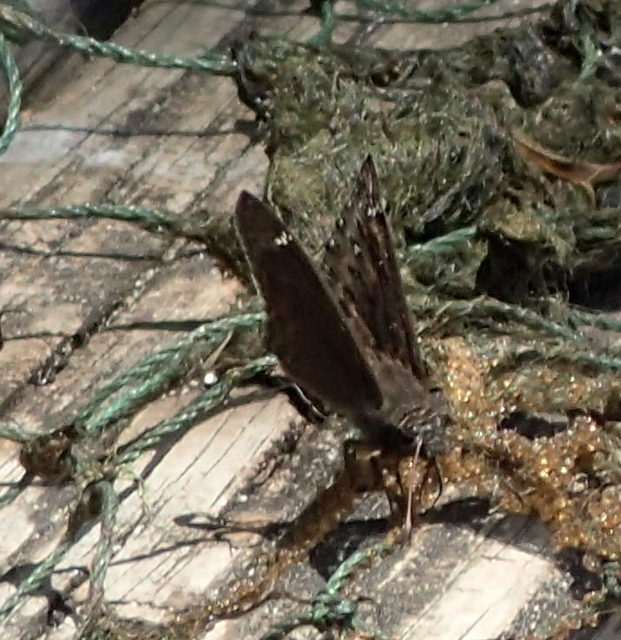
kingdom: Animalia
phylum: Arthropoda
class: Insecta
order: Lepidoptera
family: Hesperiidae
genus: Erynnis
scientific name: Erynnis horatius
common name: Horace's duskywing
